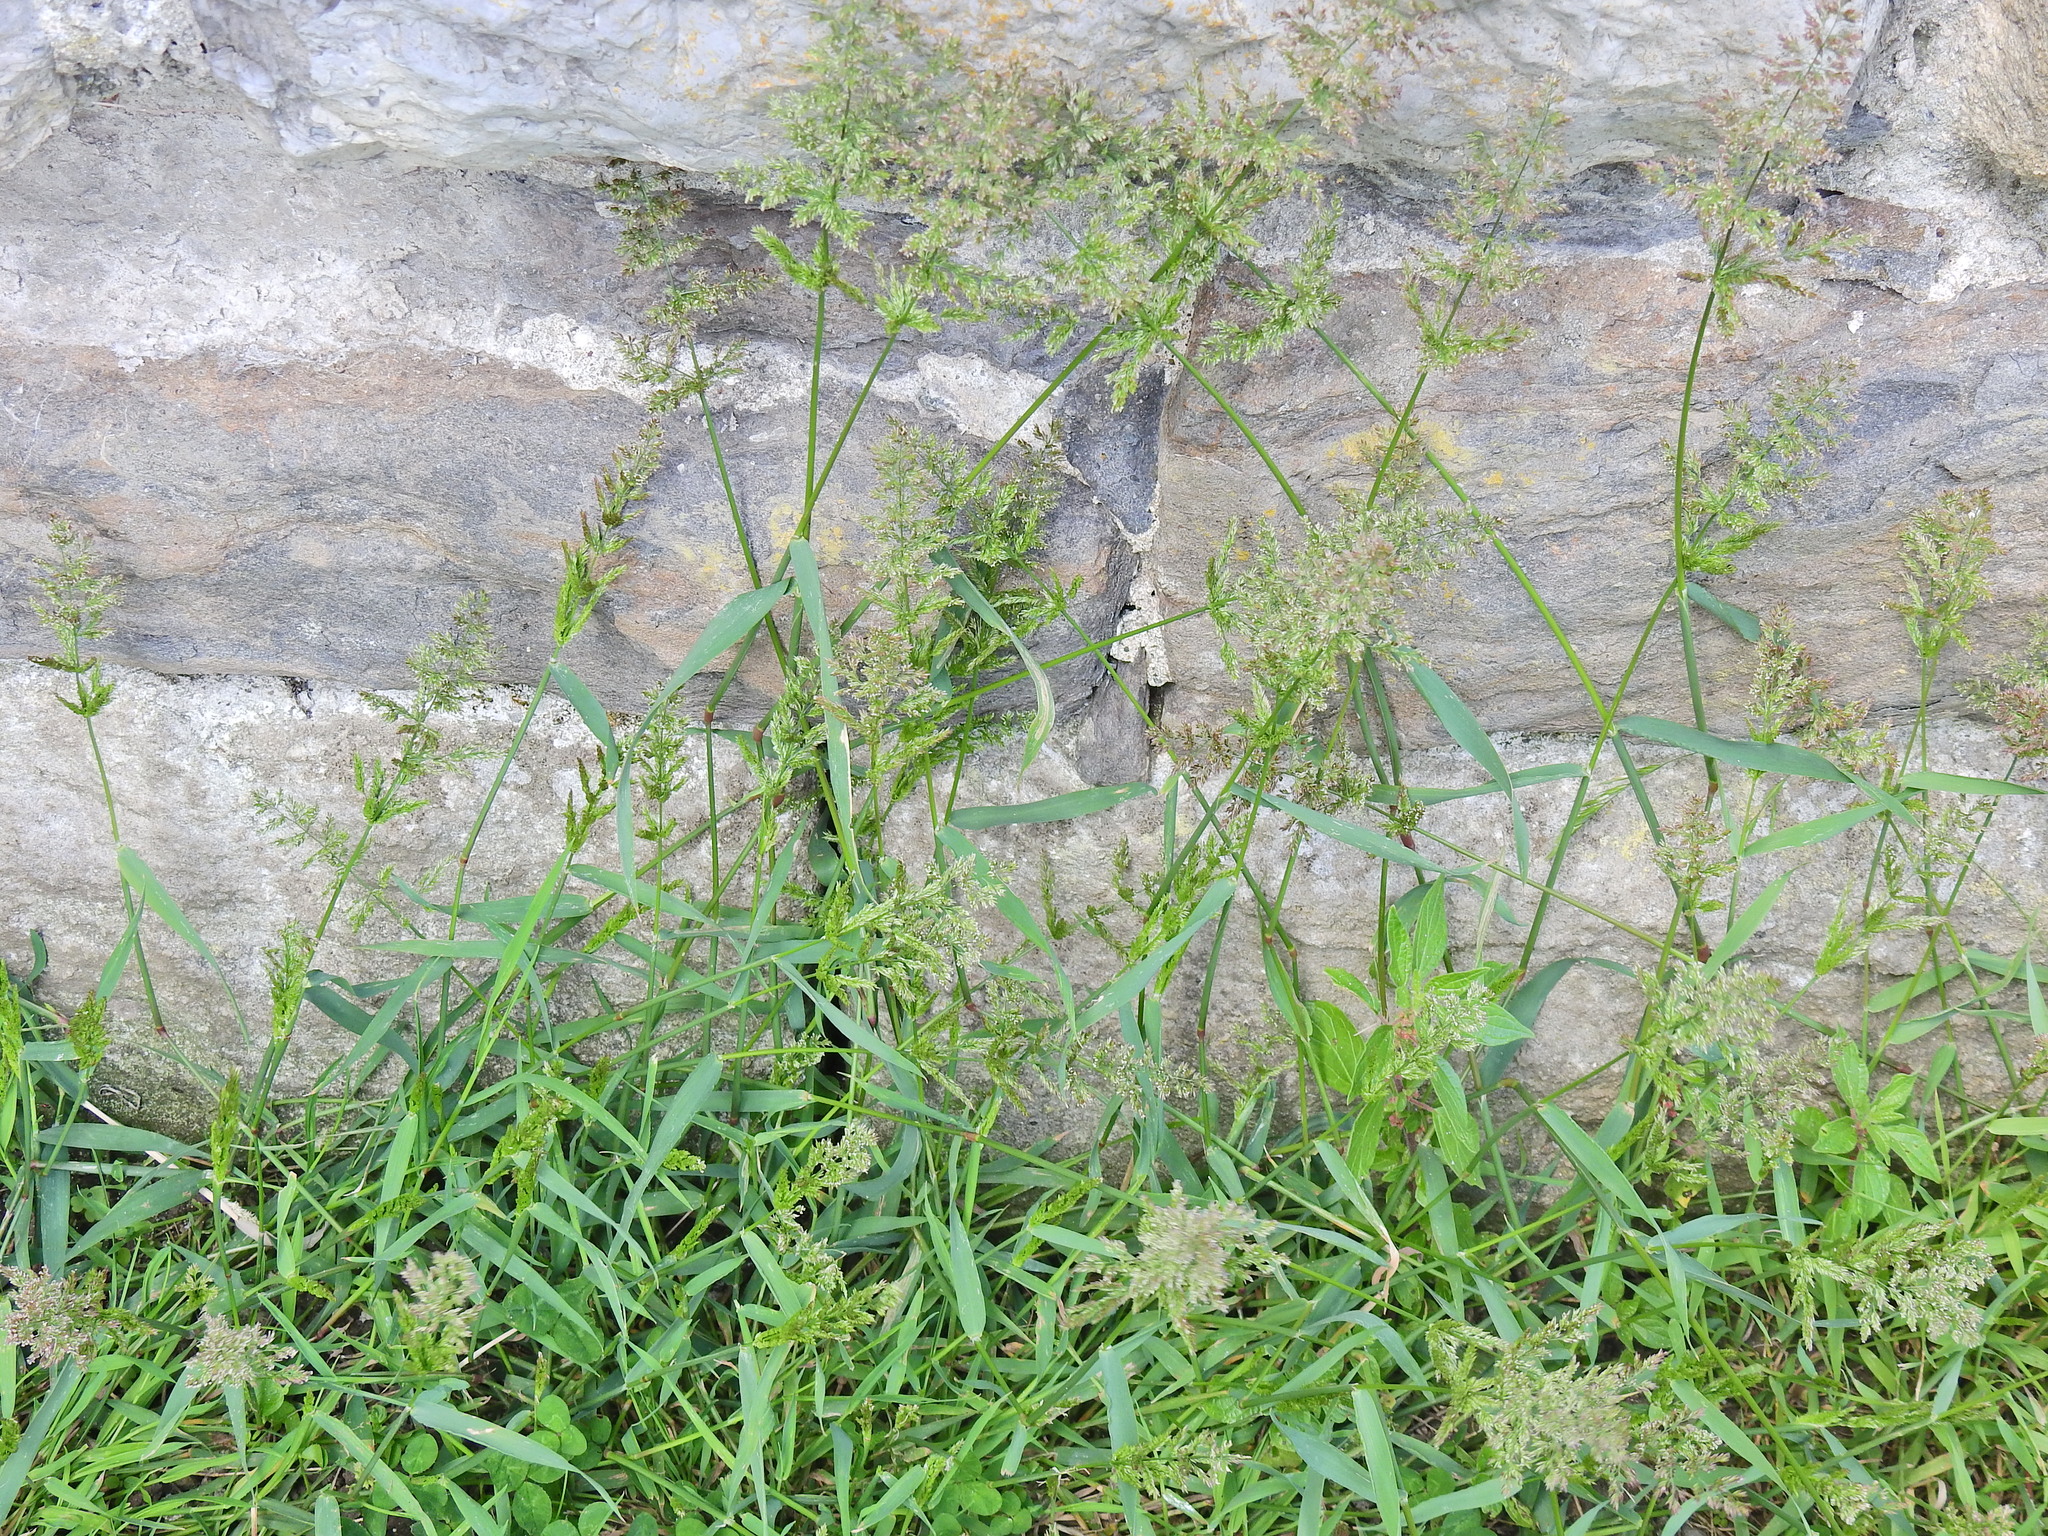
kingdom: Plantae
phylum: Tracheophyta
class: Liliopsida
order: Poales
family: Poaceae
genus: Polypogon
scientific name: Polypogon viridis
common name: Water bent
